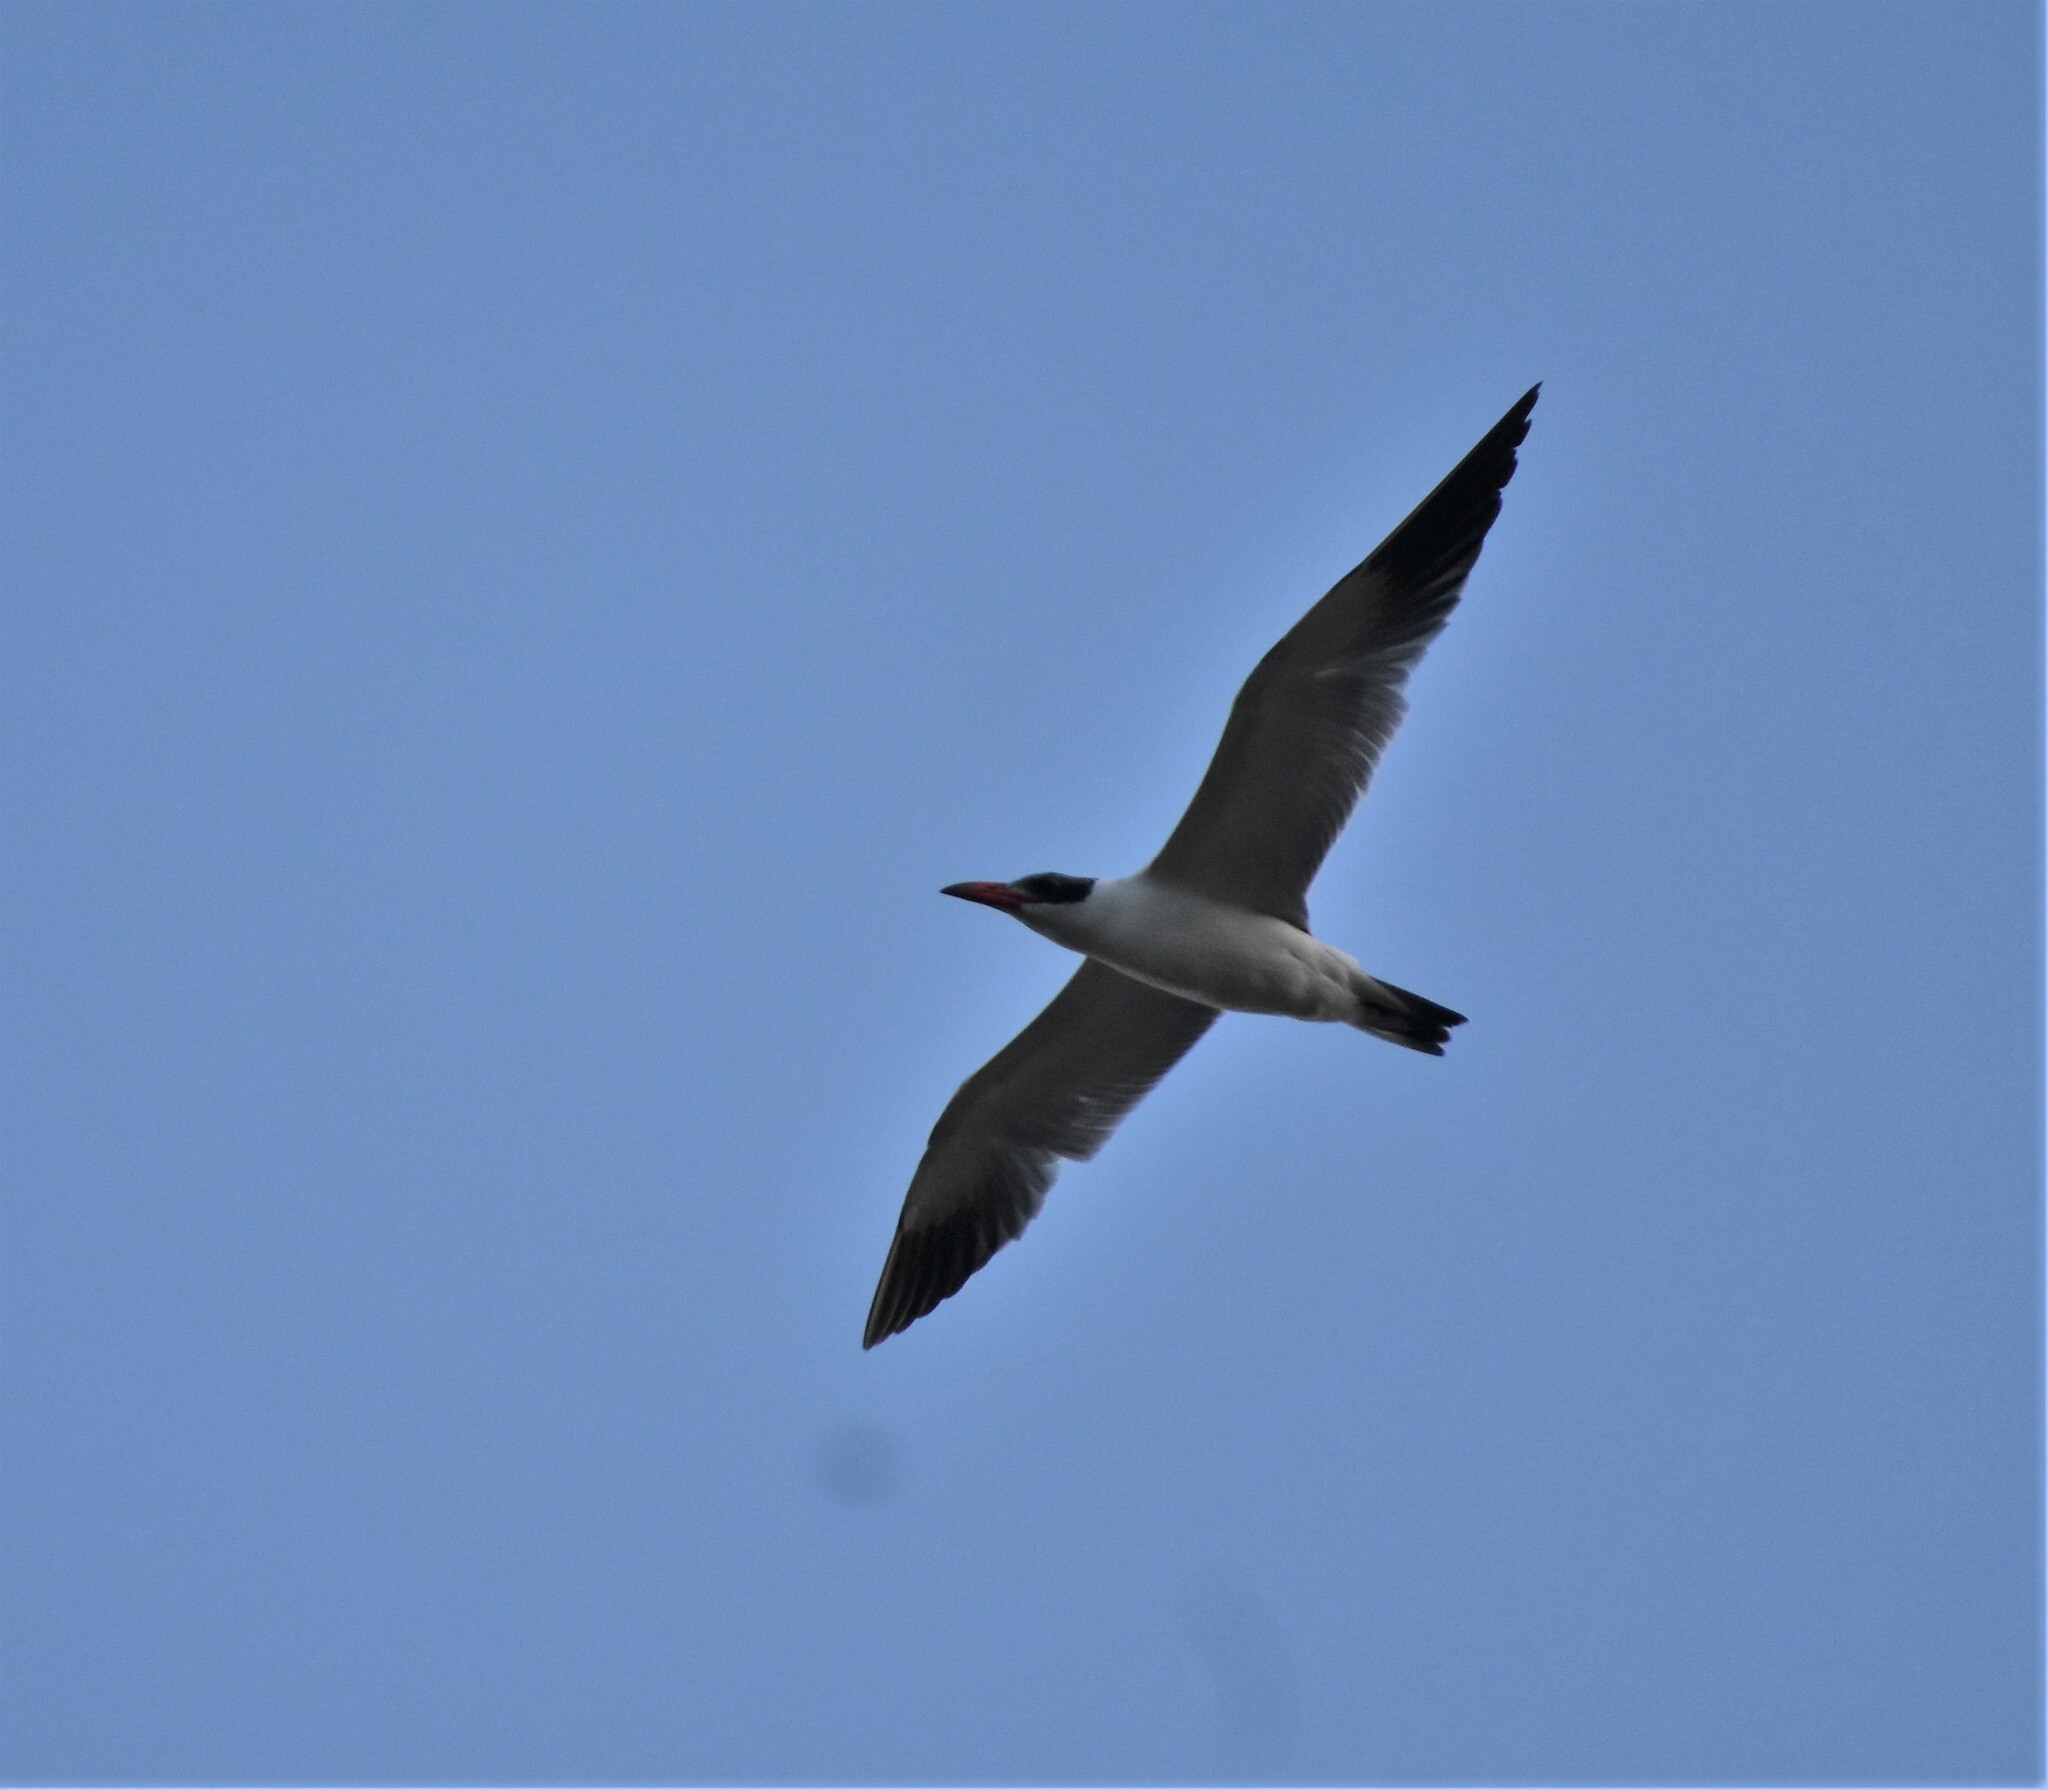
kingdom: Animalia
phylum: Chordata
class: Aves
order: Charadriiformes
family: Laridae
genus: Hydroprogne
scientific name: Hydroprogne caspia
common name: Caspian tern
